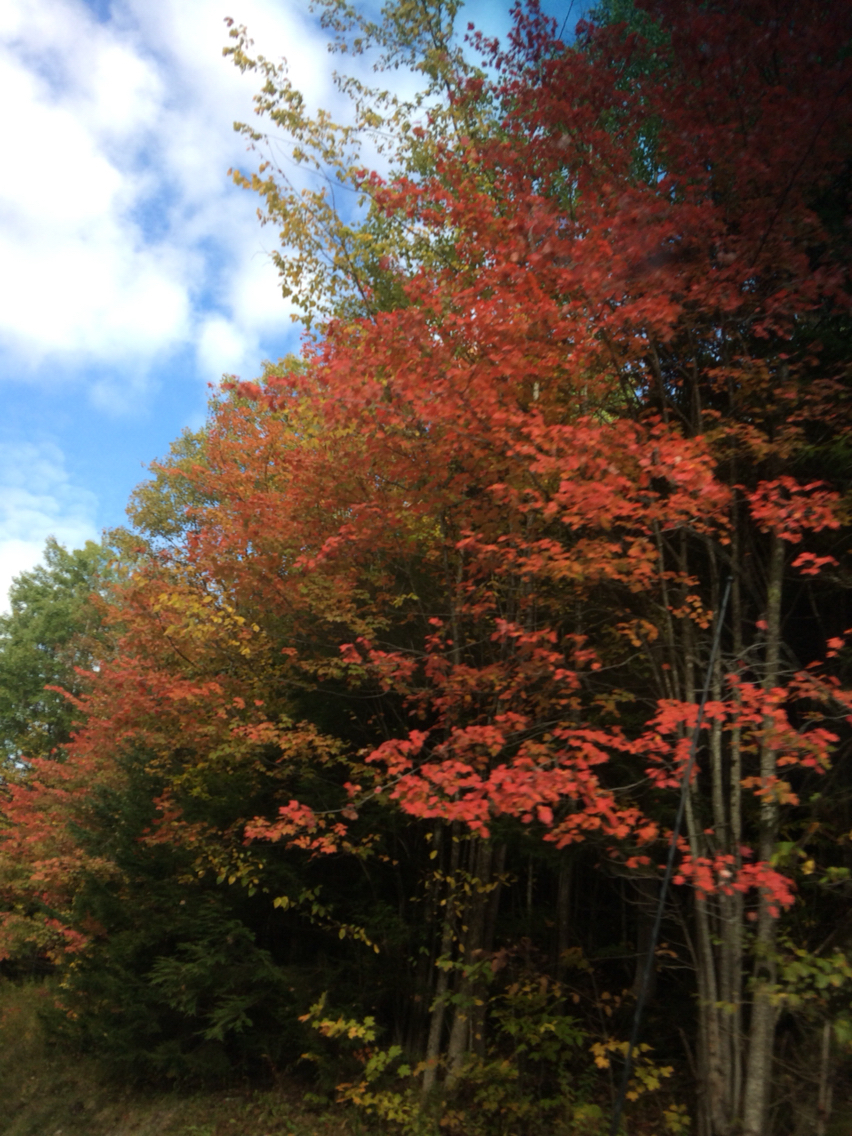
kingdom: Plantae
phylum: Tracheophyta
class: Magnoliopsida
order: Sapindales
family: Sapindaceae
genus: Acer
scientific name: Acer rubrum
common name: Red maple
